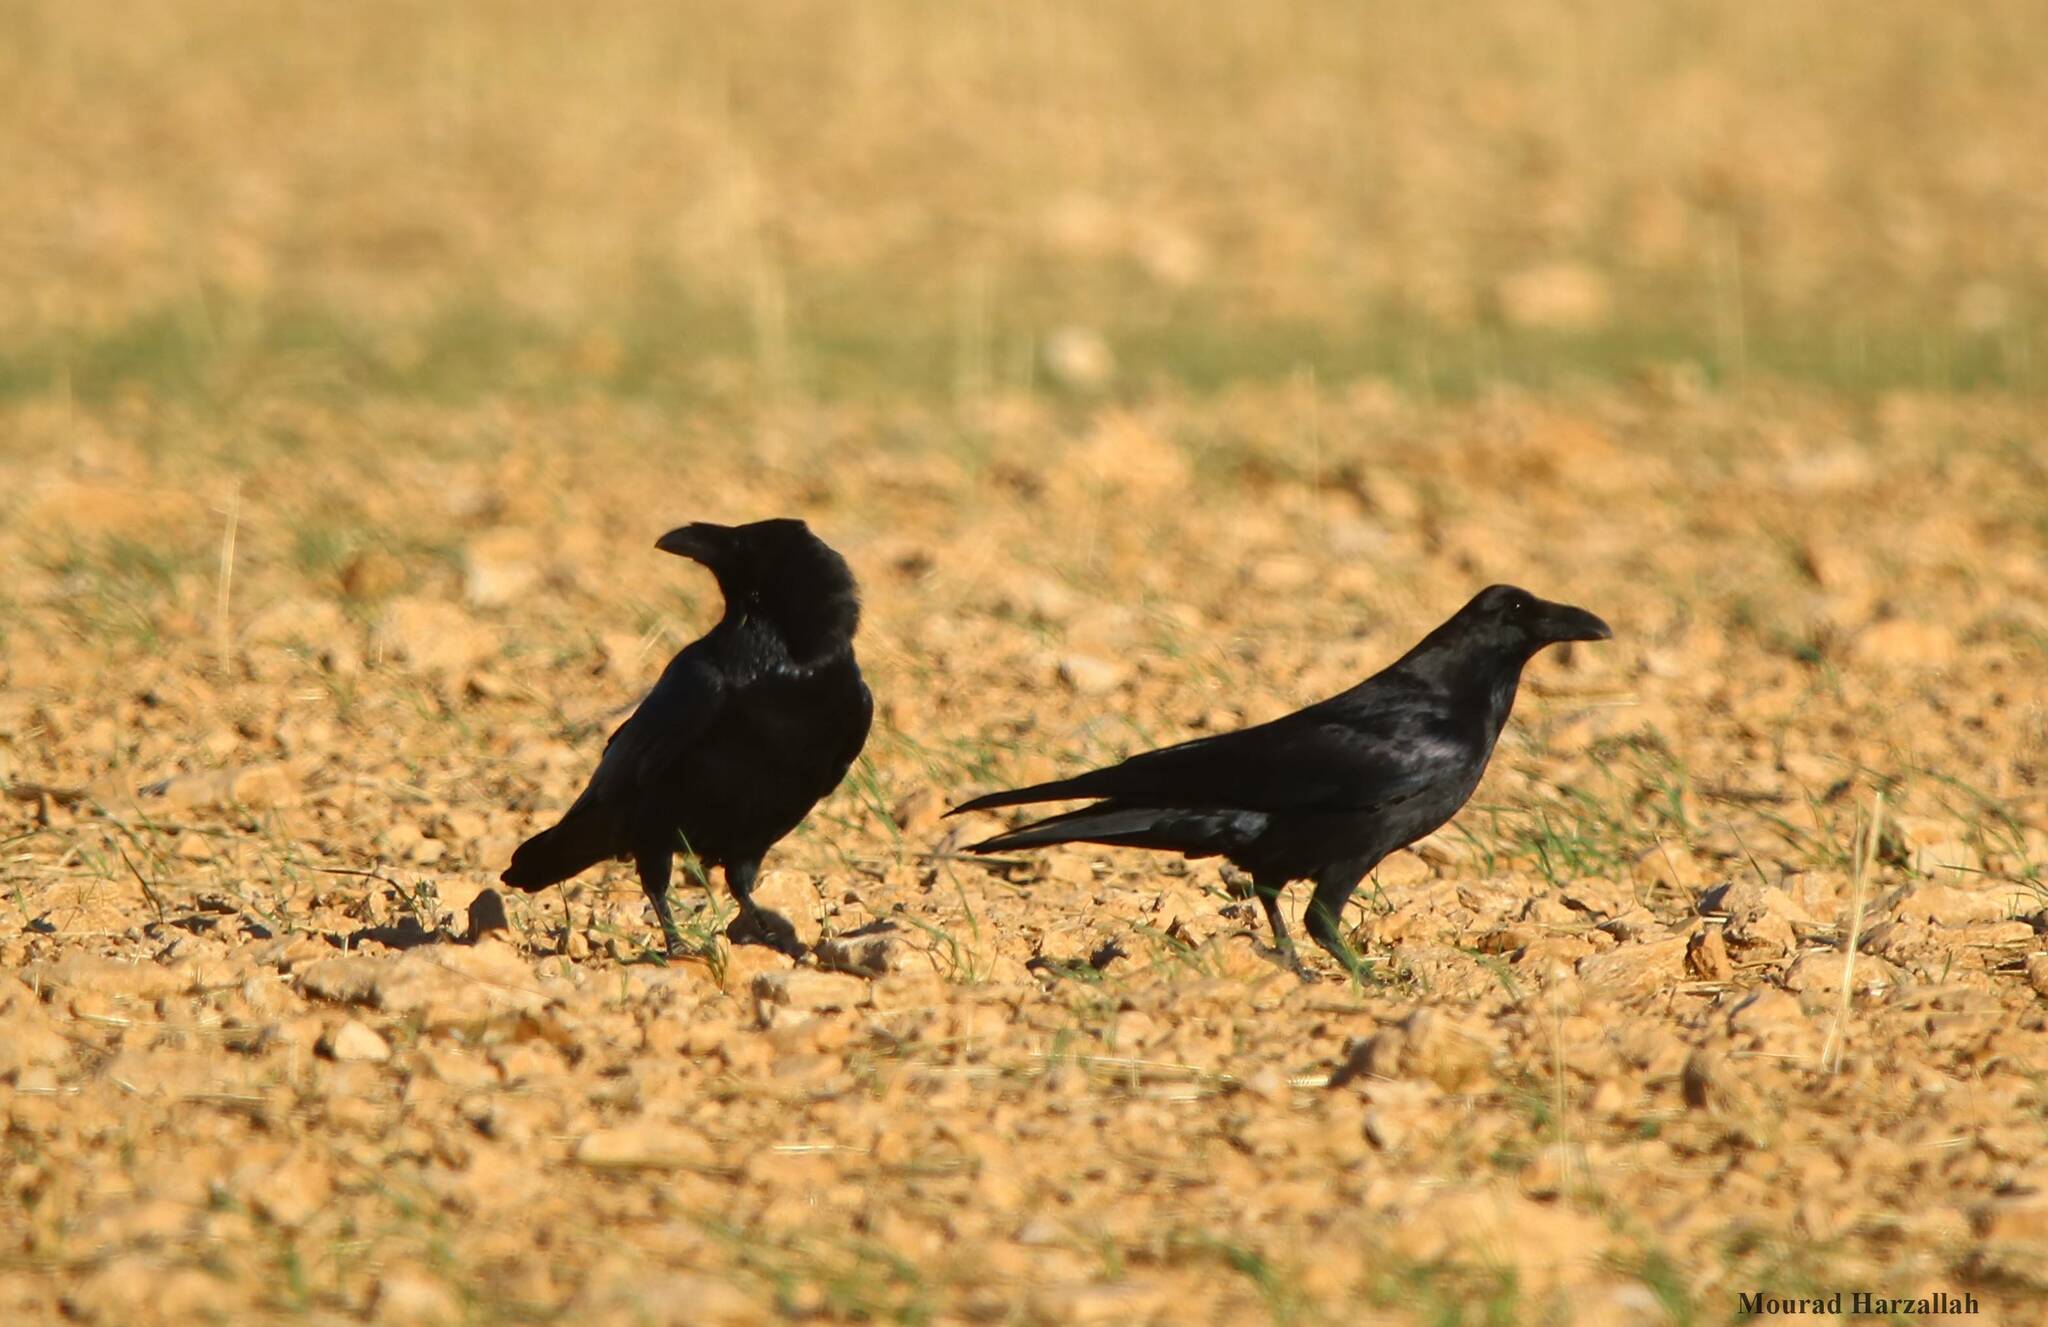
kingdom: Animalia
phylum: Chordata
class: Aves
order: Passeriformes
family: Corvidae
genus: Corvus
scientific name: Corvus corax
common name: Common raven
